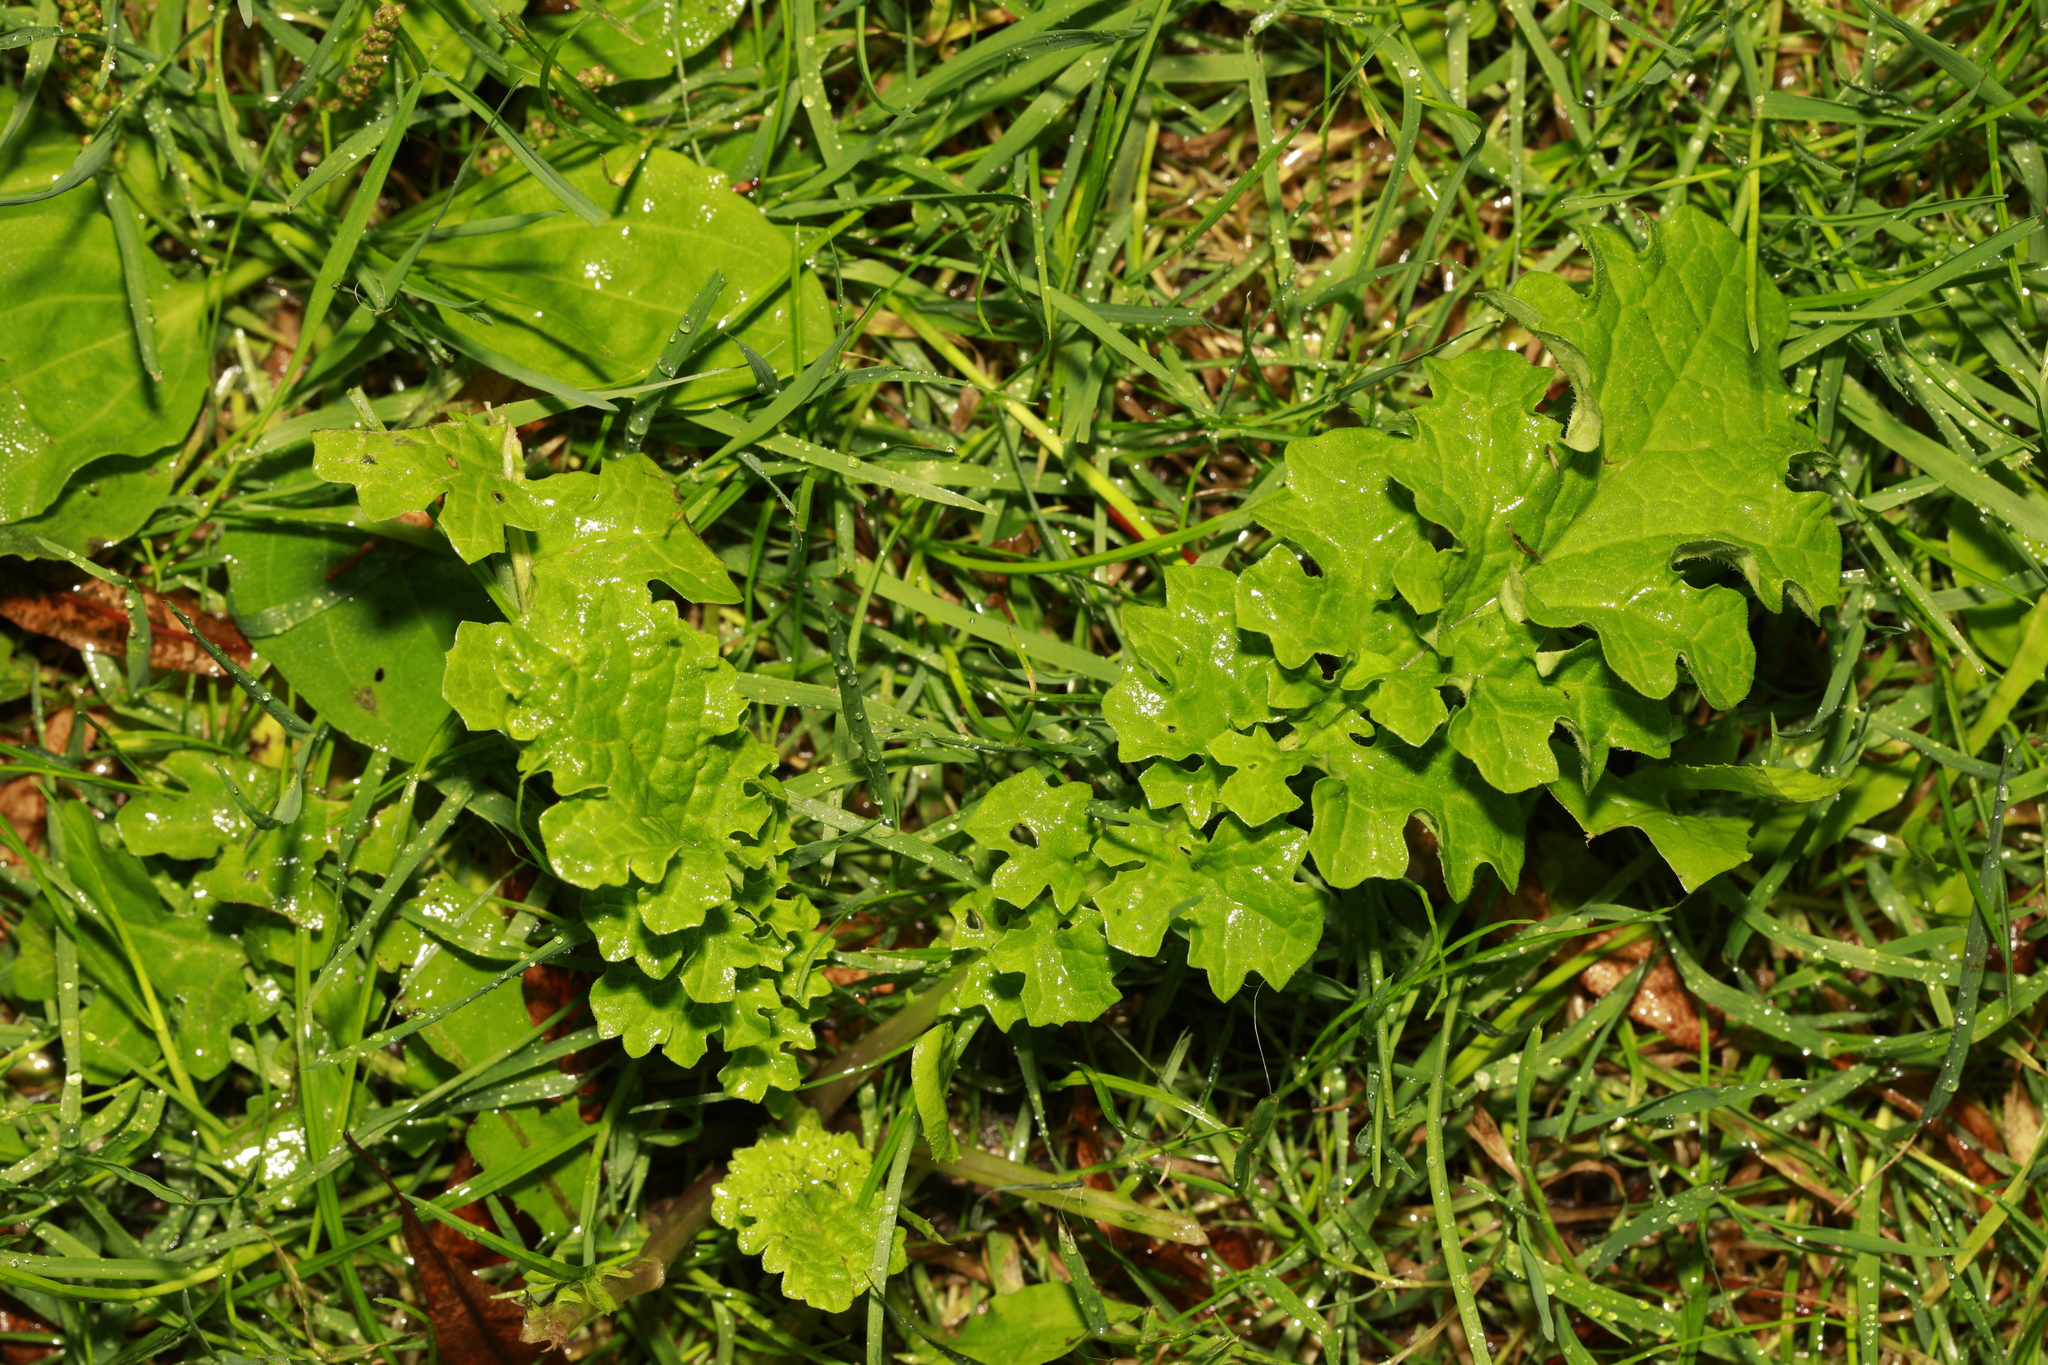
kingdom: Plantae
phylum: Tracheophyta
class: Magnoliopsida
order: Asterales
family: Asteraceae
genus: Jacobaea
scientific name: Jacobaea vulgaris
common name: Stinking willie
